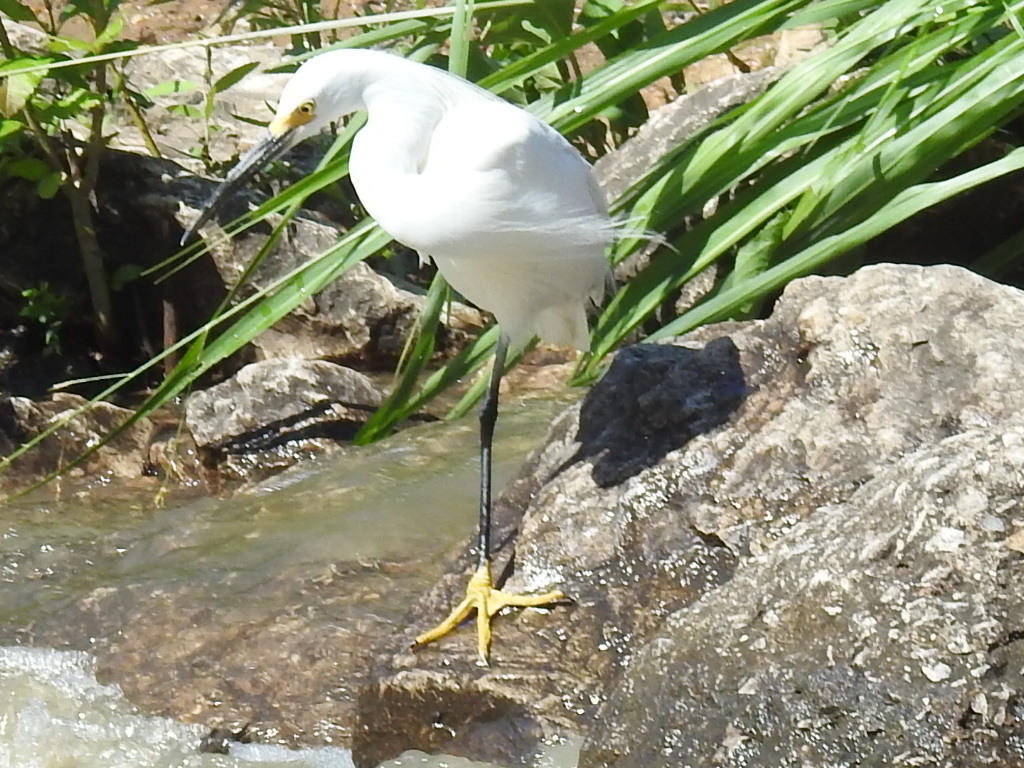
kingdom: Animalia
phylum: Chordata
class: Aves
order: Pelecaniformes
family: Ardeidae
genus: Egretta
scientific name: Egretta thula
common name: Snowy egret
